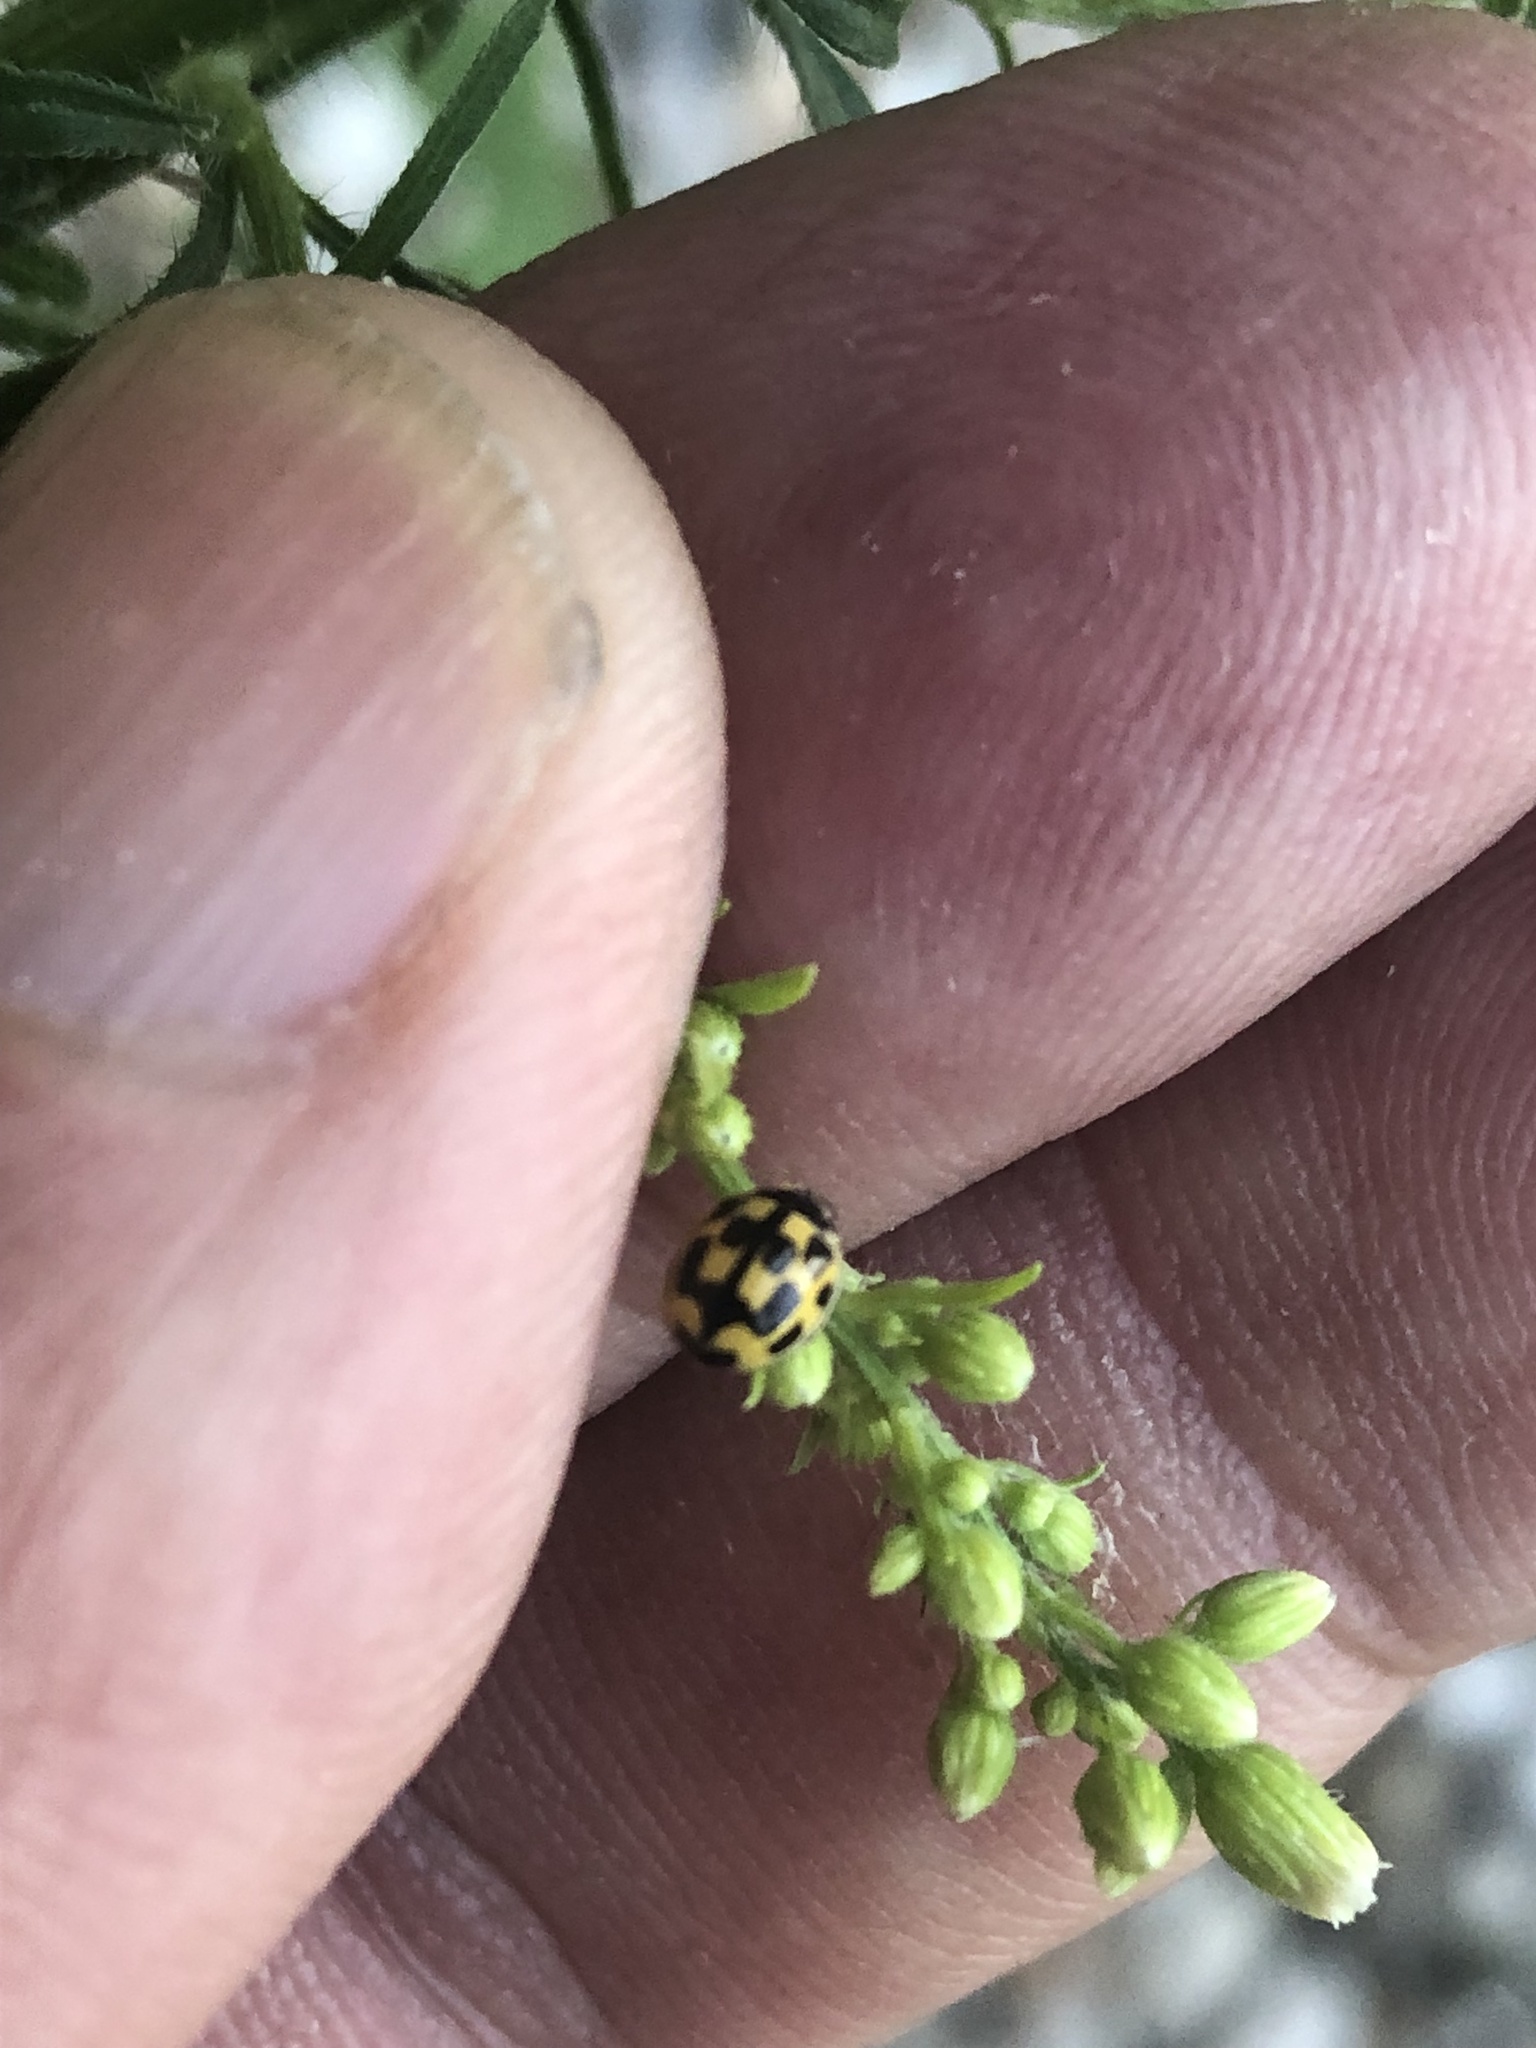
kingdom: Animalia
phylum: Arthropoda
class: Insecta
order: Coleoptera
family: Coccinellidae
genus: Propylaea
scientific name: Propylaea quatuordecimpunctata
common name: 14-spotted ladybird beetle
